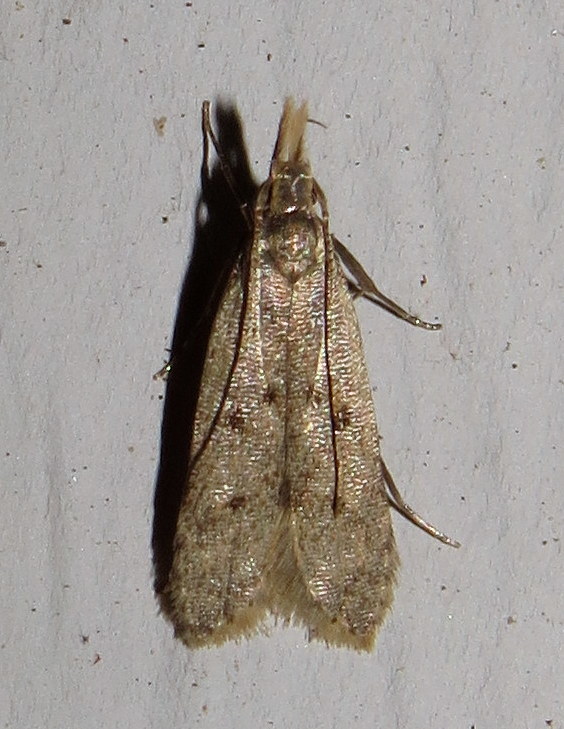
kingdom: Animalia
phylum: Arthropoda
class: Insecta
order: Lepidoptera
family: Gelechiidae
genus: Dichomeris
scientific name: Dichomeris punctipennella
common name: Many-spotted dichomeris moth
